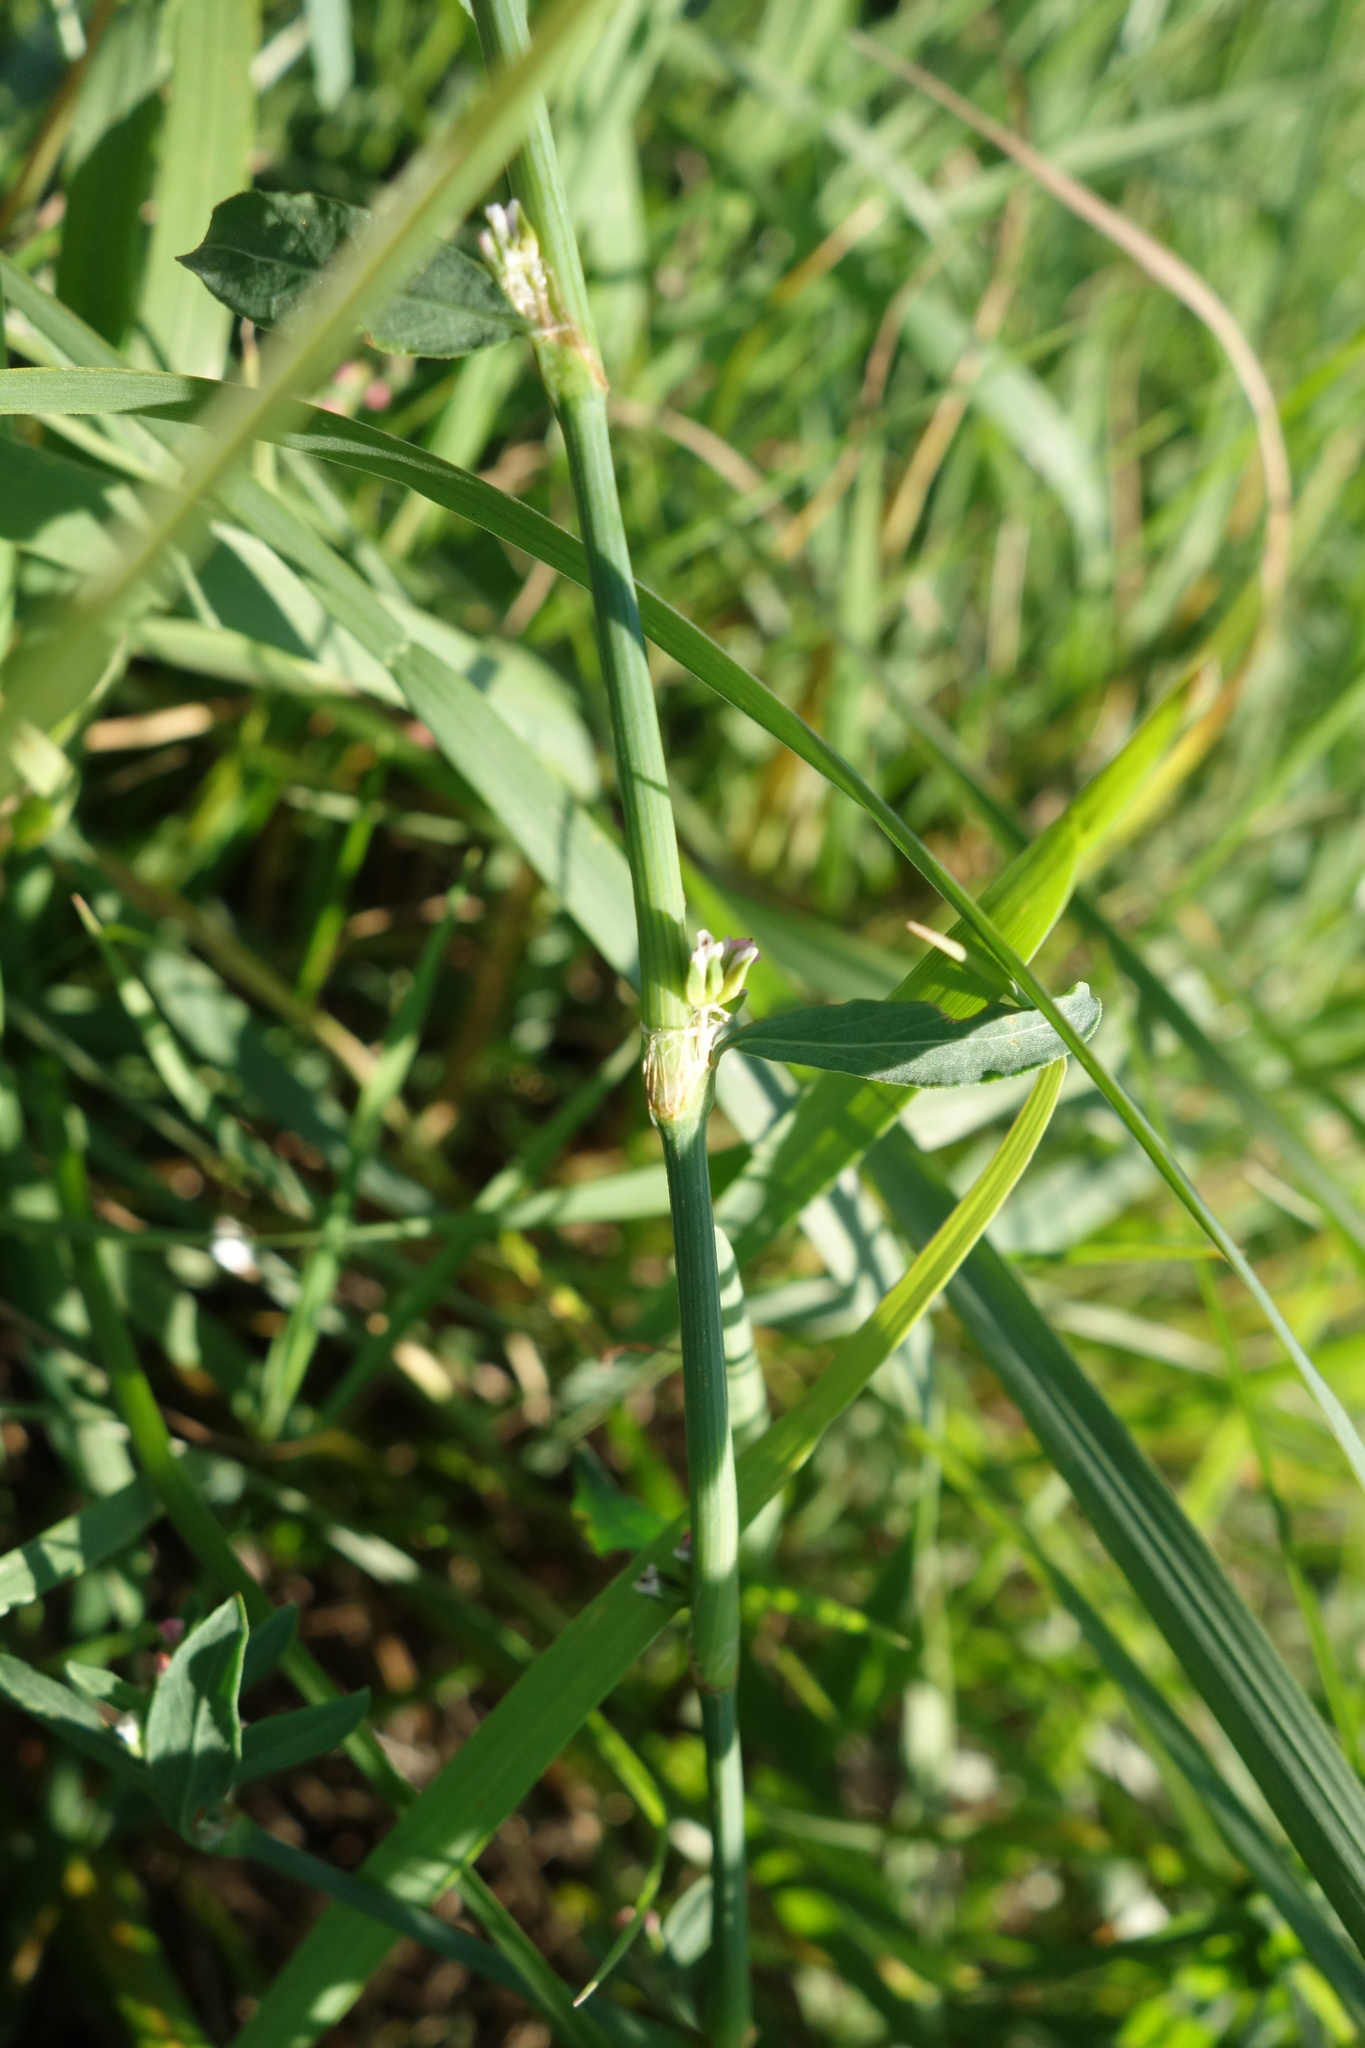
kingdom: Plantae
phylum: Tracheophyta
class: Magnoliopsida
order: Caryophyllales
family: Polygonaceae
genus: Polygonum
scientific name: Polygonum aviculare
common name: Prostrate knotweed
